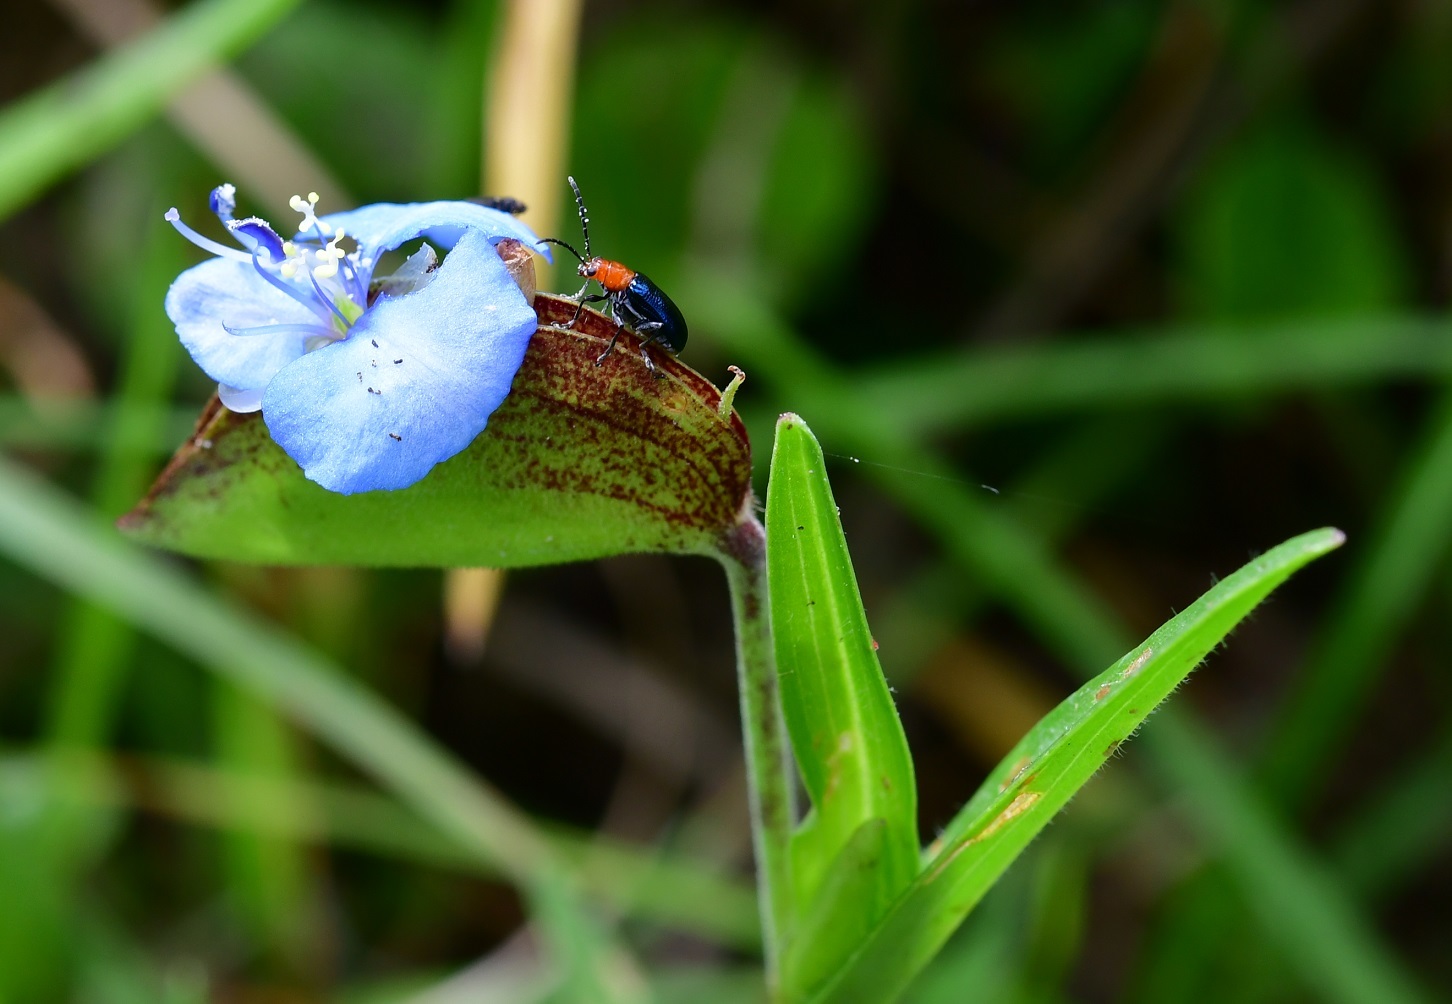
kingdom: Plantae
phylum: Tracheophyta
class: Liliopsida
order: Commelinales
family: Commelinaceae
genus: Commelina
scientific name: Commelina tuberosa
